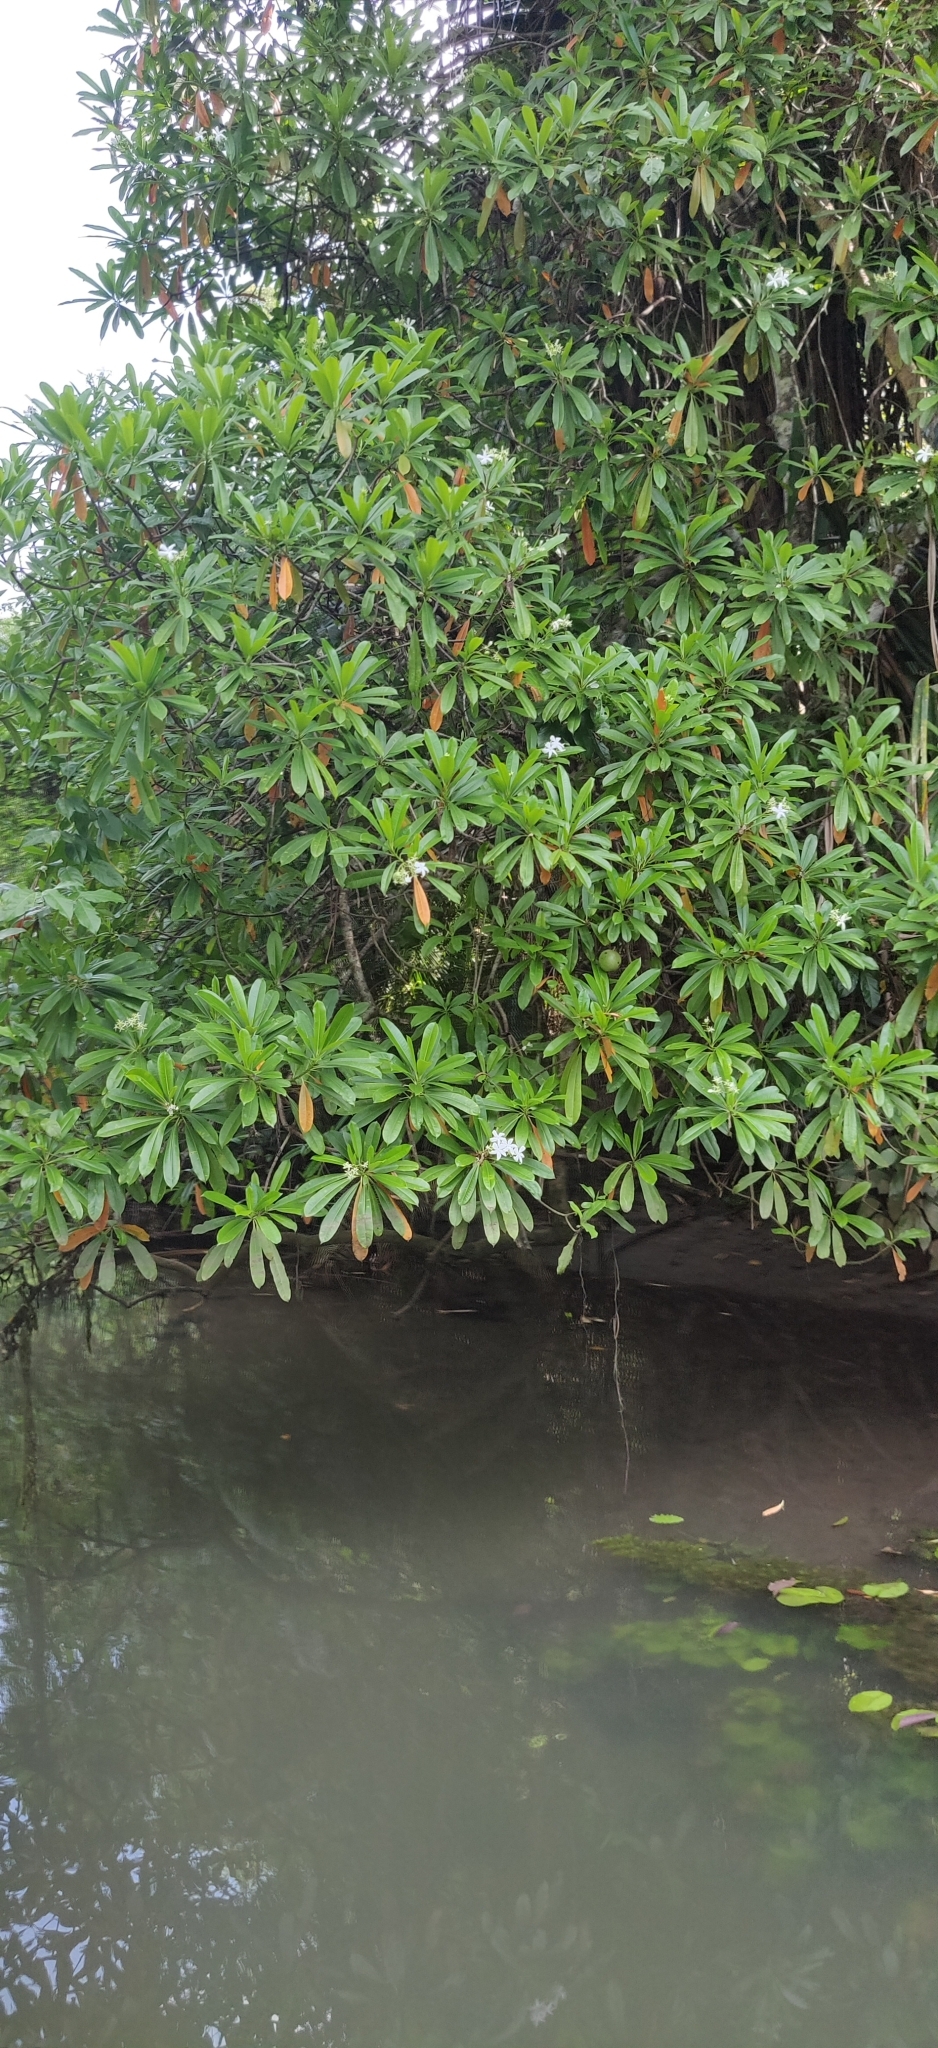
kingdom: Plantae
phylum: Tracheophyta
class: Magnoliopsida
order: Gentianales
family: Apocynaceae
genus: Cerbera
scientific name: Cerbera odollam
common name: Pong-pong
